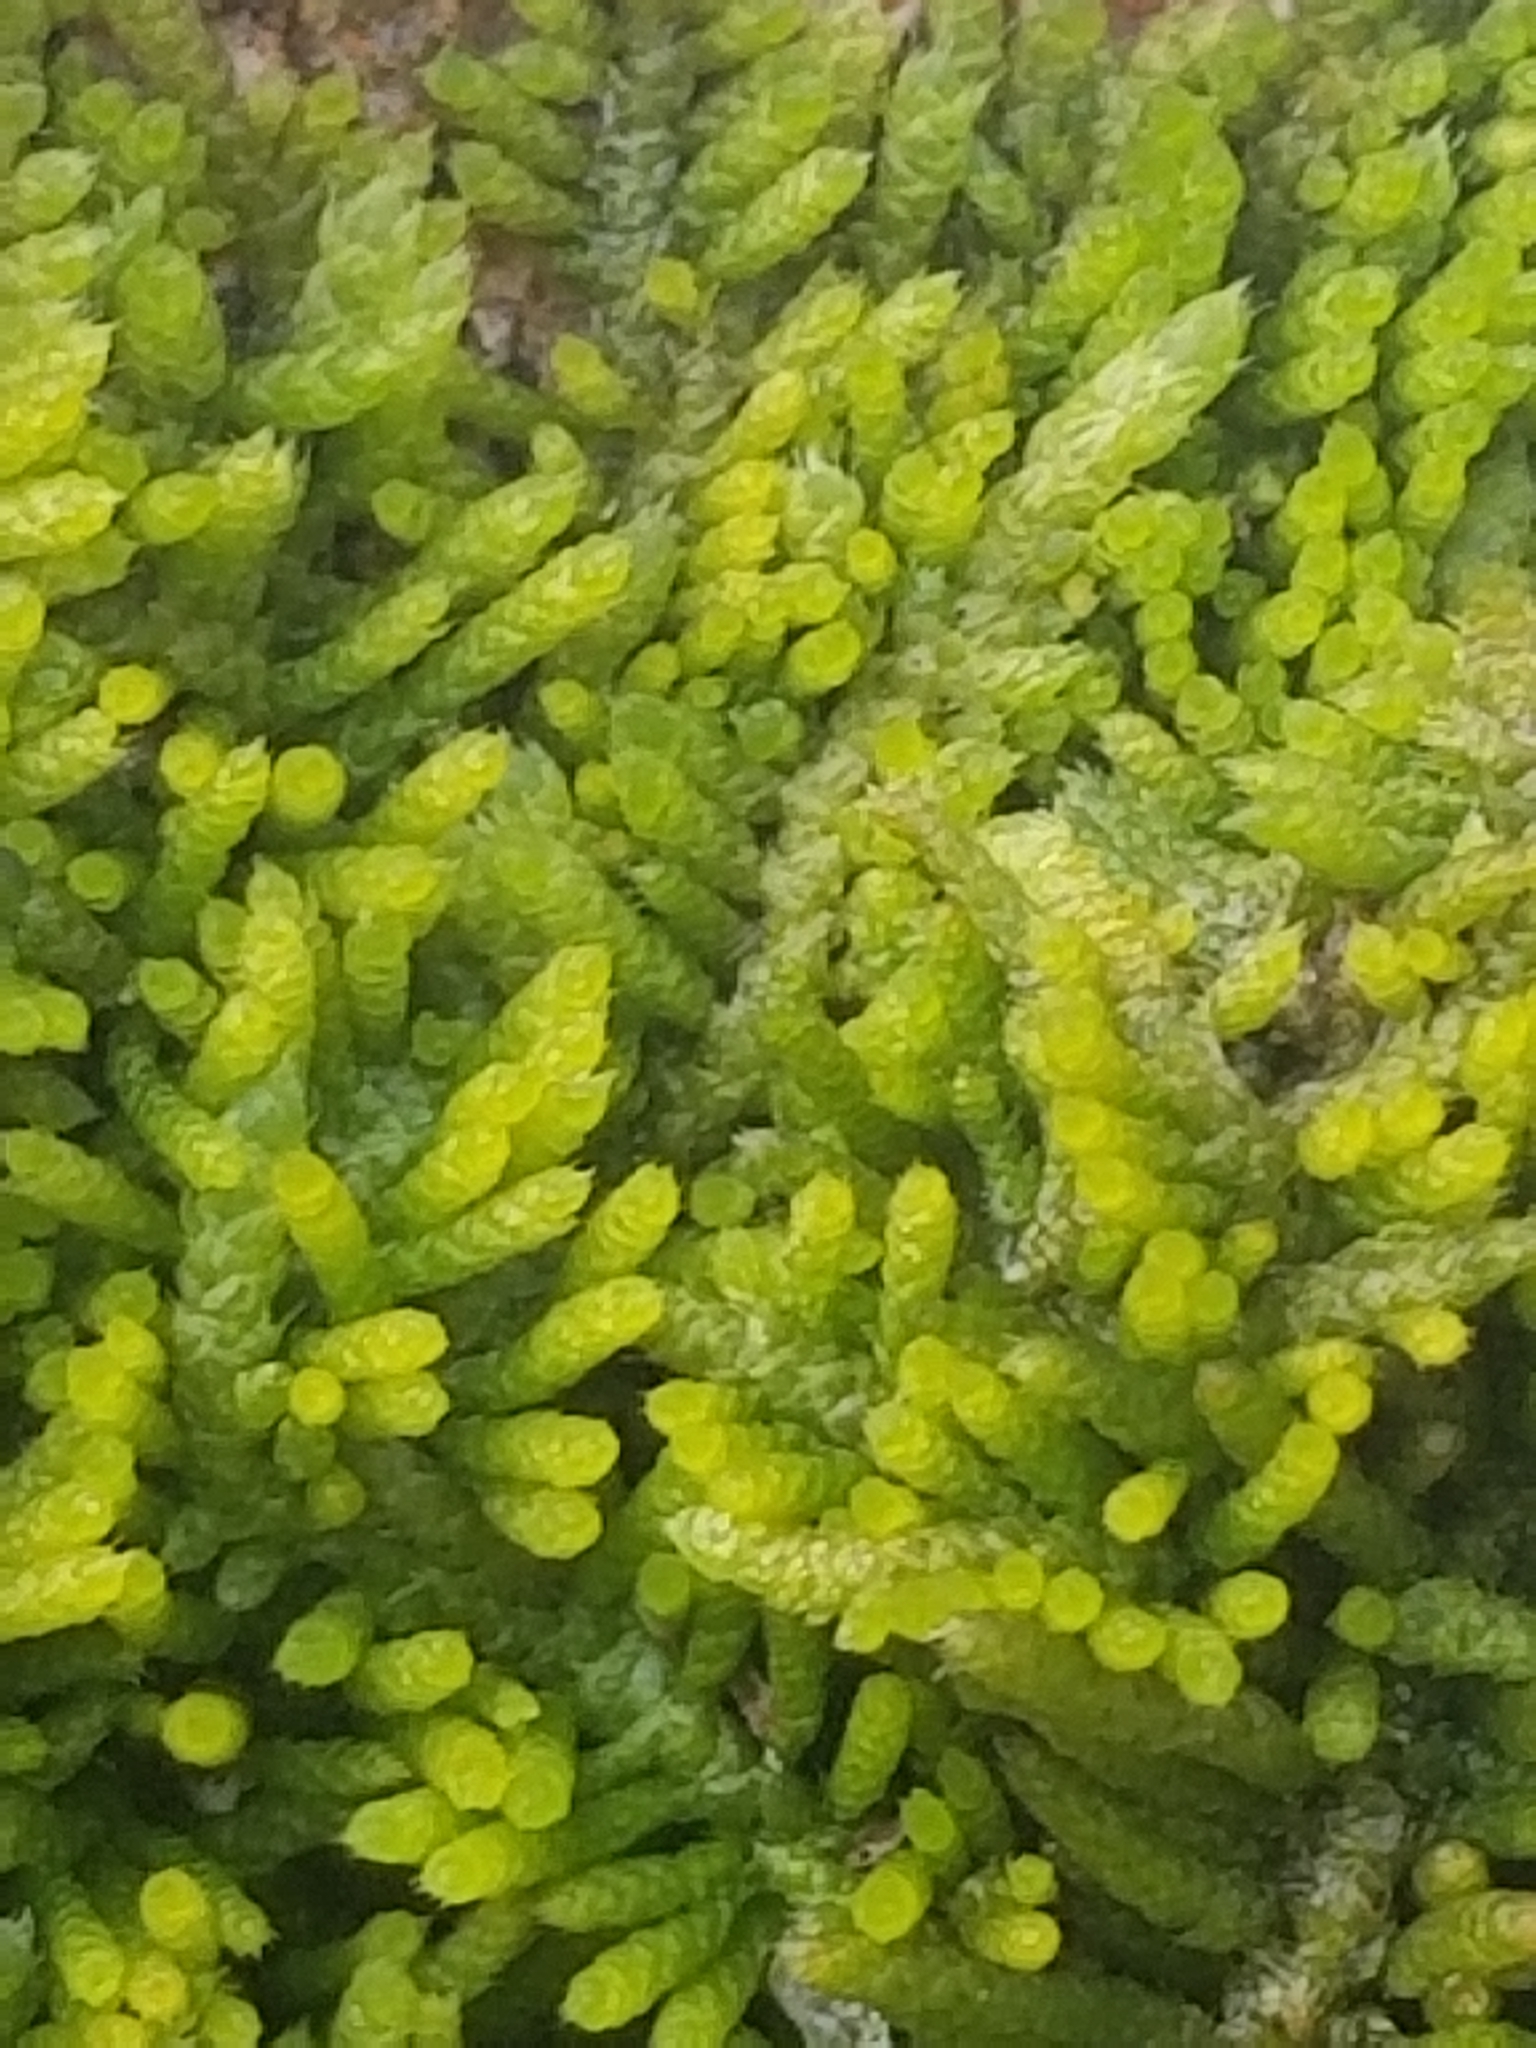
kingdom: Plantae
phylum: Bryophyta
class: Bryopsida
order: Hypnales
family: Theliaceae
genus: Thelia
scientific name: Thelia hirtella
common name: Common thelia
